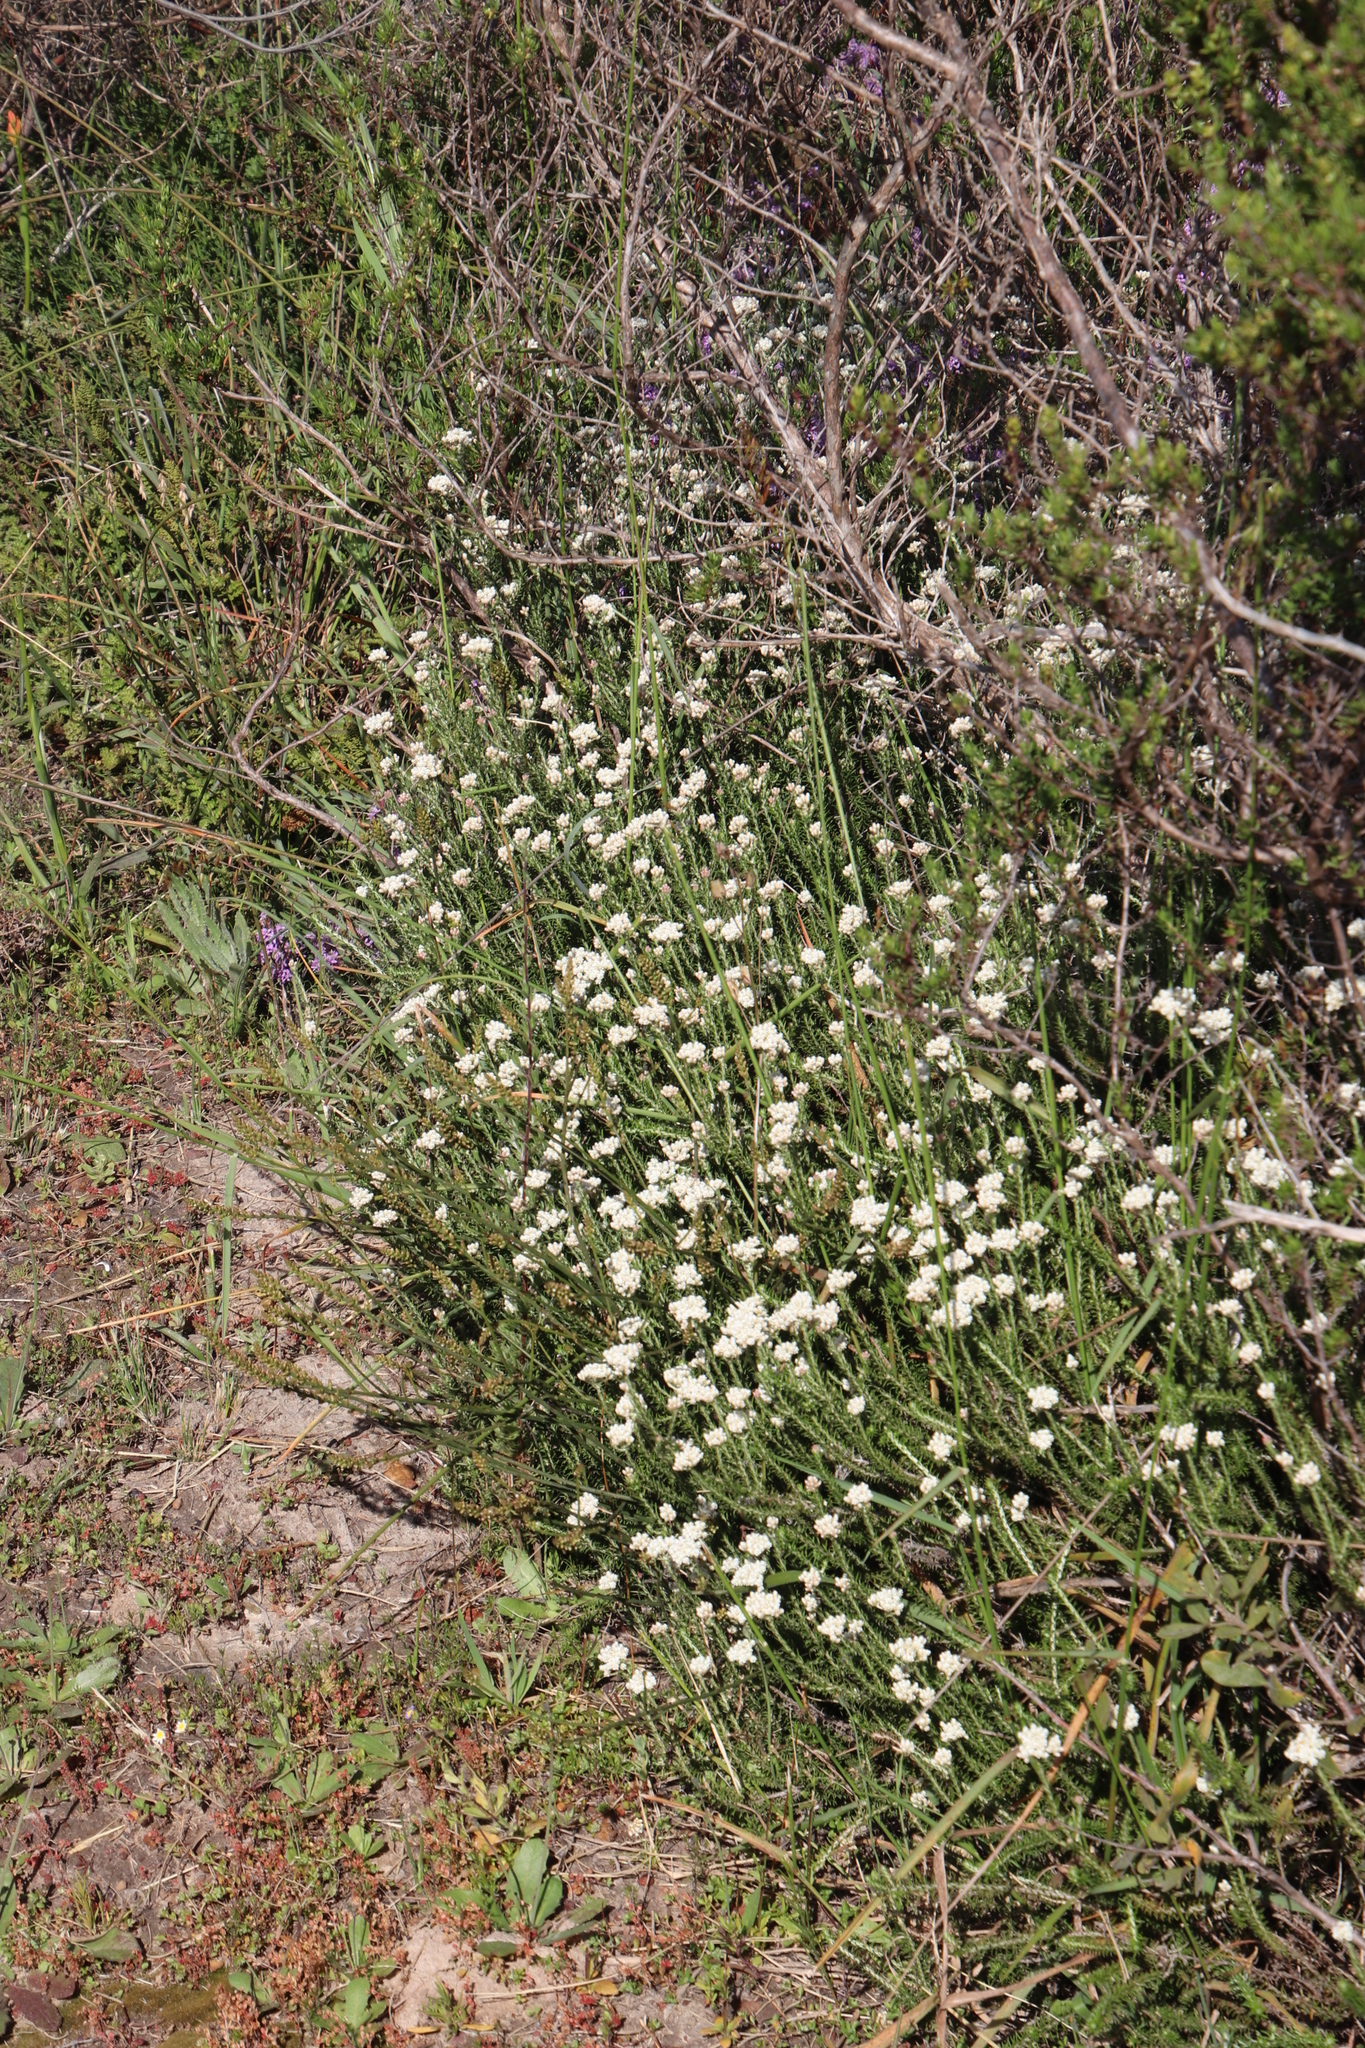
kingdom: Plantae
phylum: Tracheophyta
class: Magnoliopsida
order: Asterales
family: Asteraceae
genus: Helichrysum
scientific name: Helichrysum teretifolium
